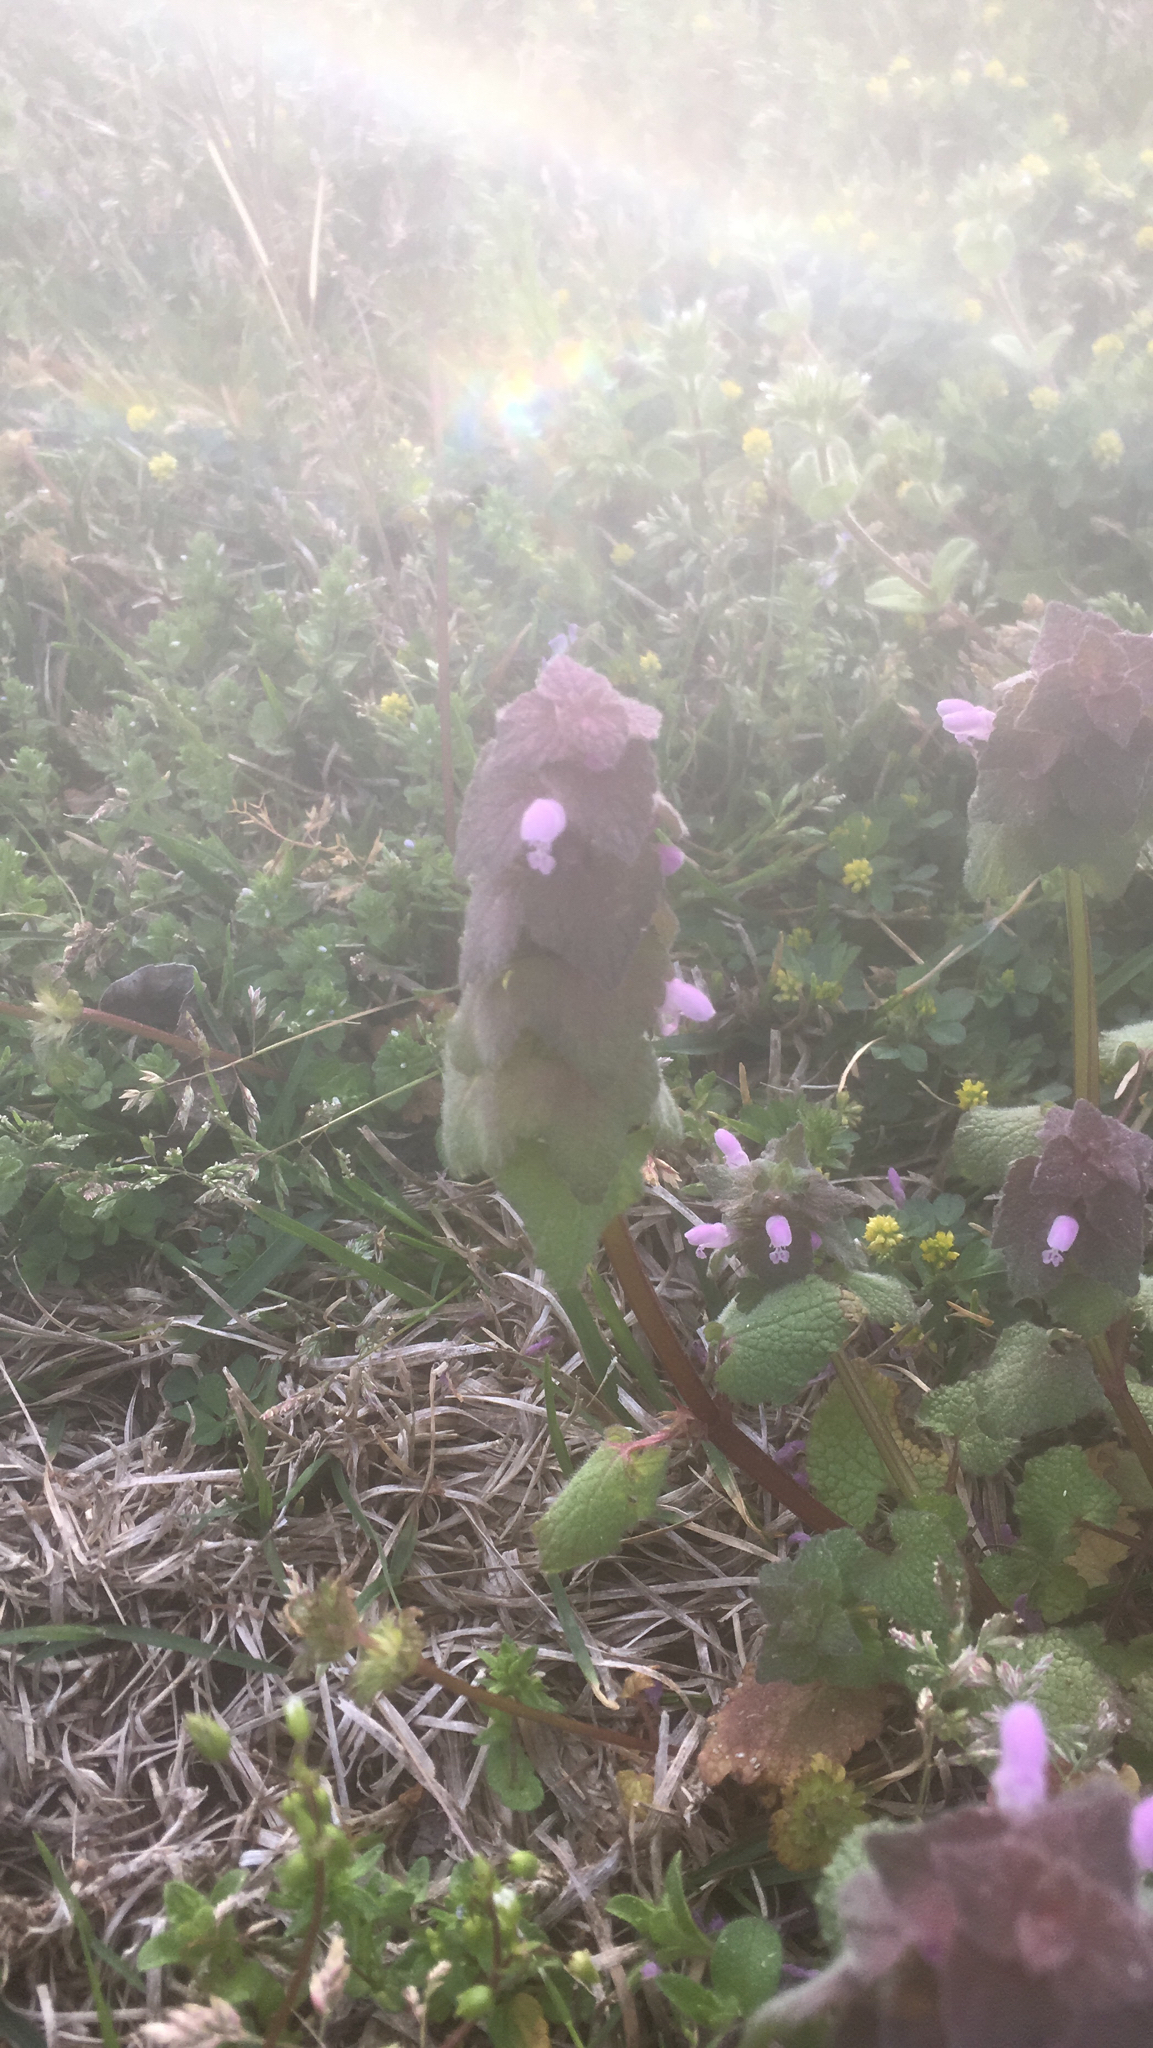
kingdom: Plantae
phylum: Tracheophyta
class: Magnoliopsida
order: Lamiales
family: Lamiaceae
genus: Lamium
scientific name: Lamium purpureum
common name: Red dead-nettle
